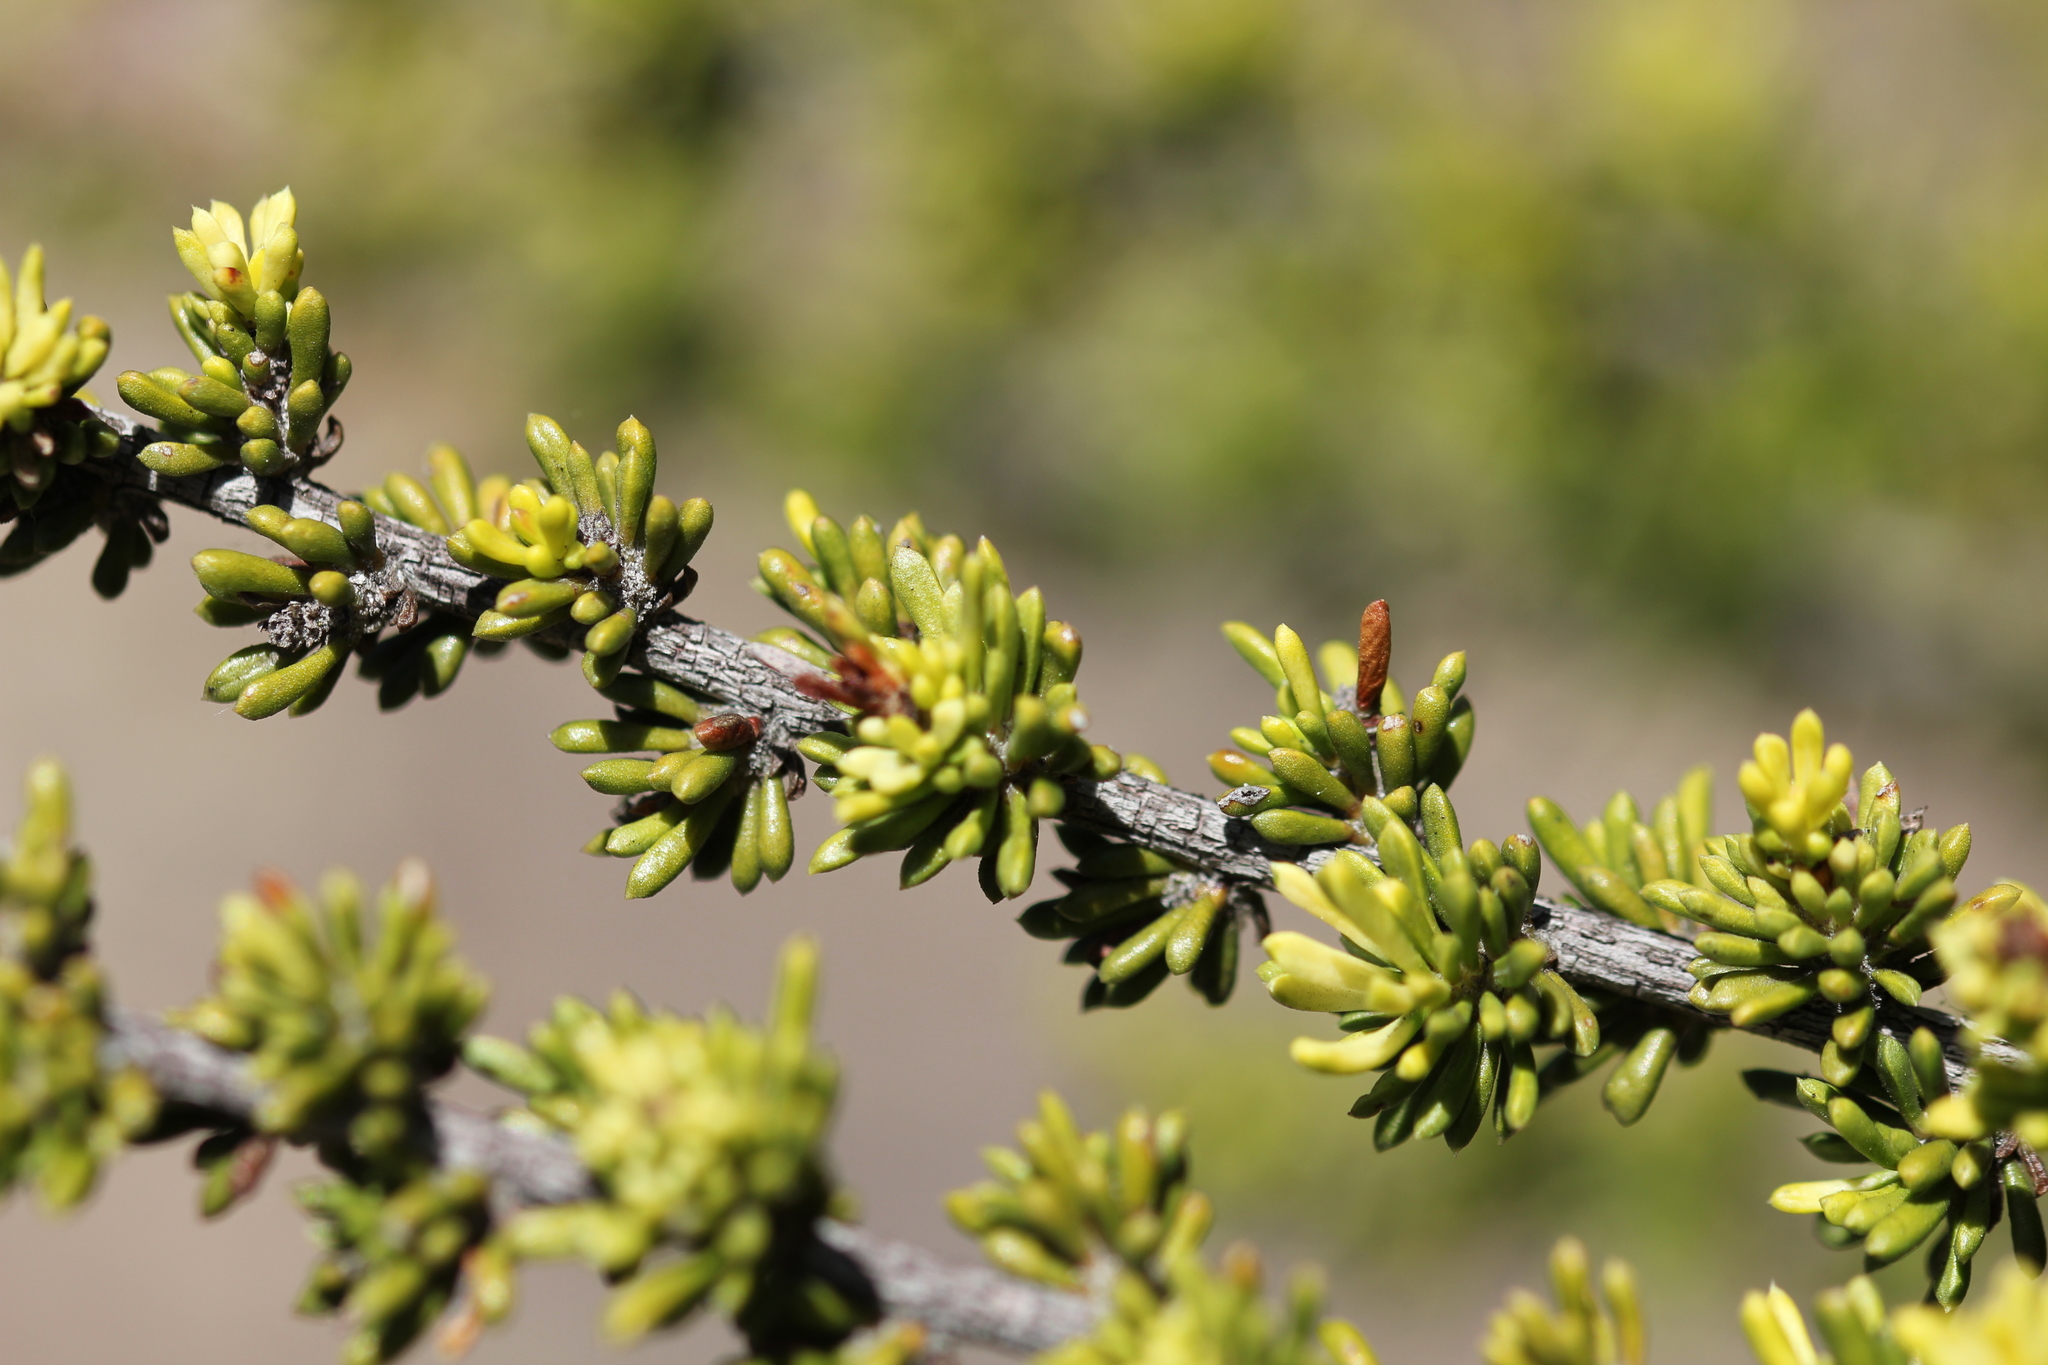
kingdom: Plantae
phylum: Tracheophyta
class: Magnoliopsida
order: Rosales
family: Rosaceae
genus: Adenostoma
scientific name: Adenostoma fasciculatum
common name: Chamise
